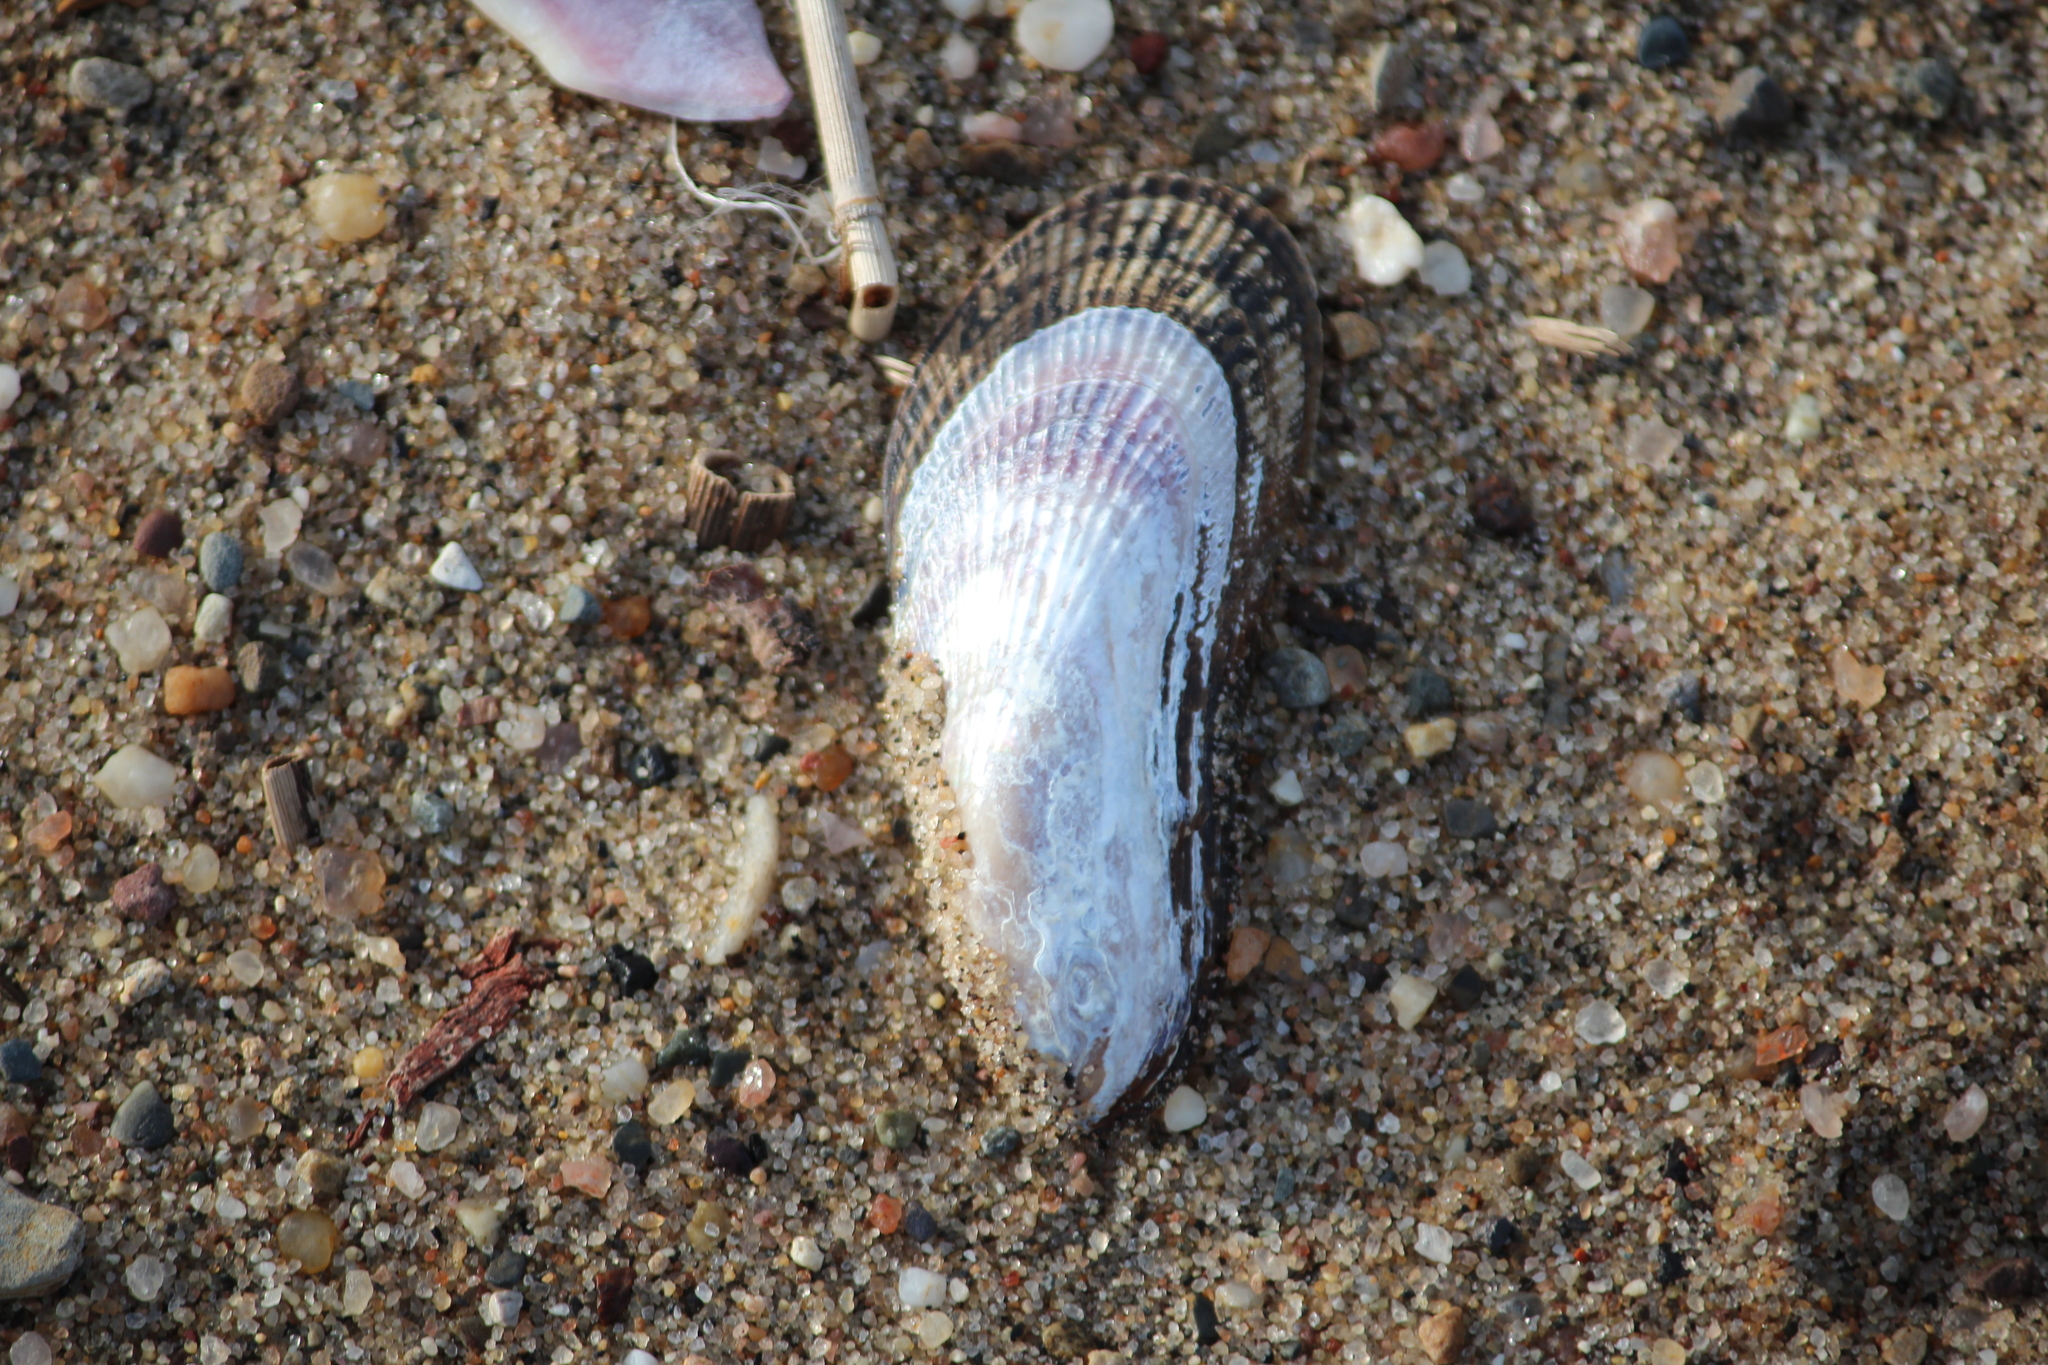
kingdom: Animalia
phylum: Mollusca
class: Bivalvia
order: Mytilida
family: Mytilidae
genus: Geukensia
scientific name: Geukensia demissa
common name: Ribbed mussel
